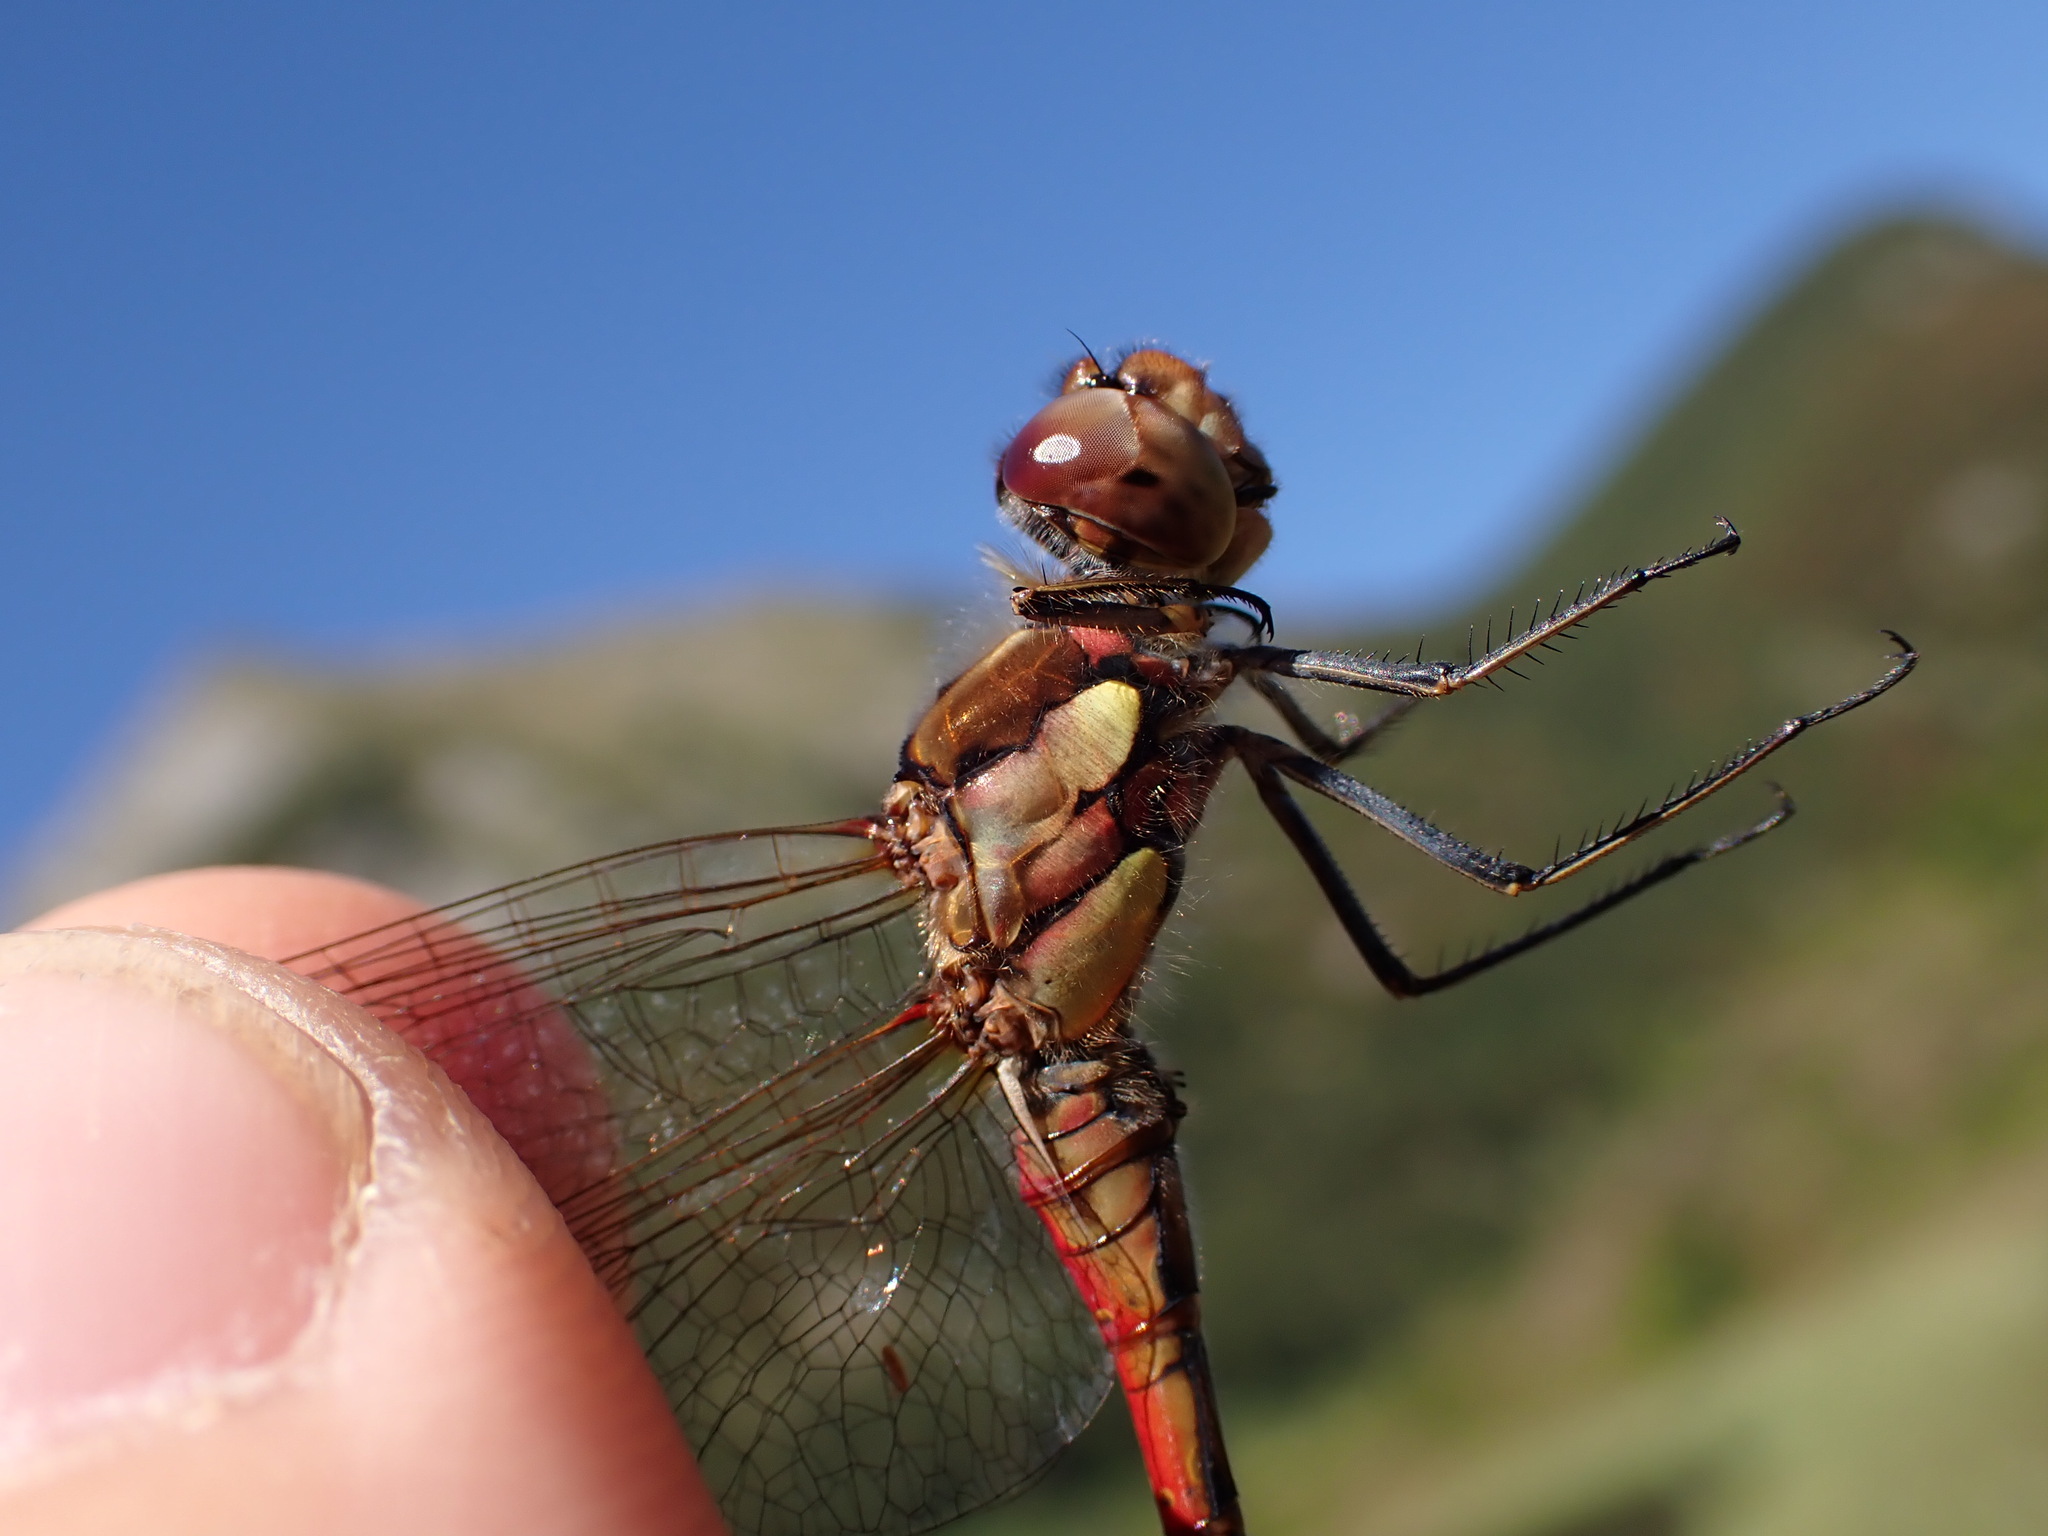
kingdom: Animalia
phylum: Arthropoda
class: Insecta
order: Odonata
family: Libellulidae
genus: Sympetrum
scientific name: Sympetrum striolatum
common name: Common darter
